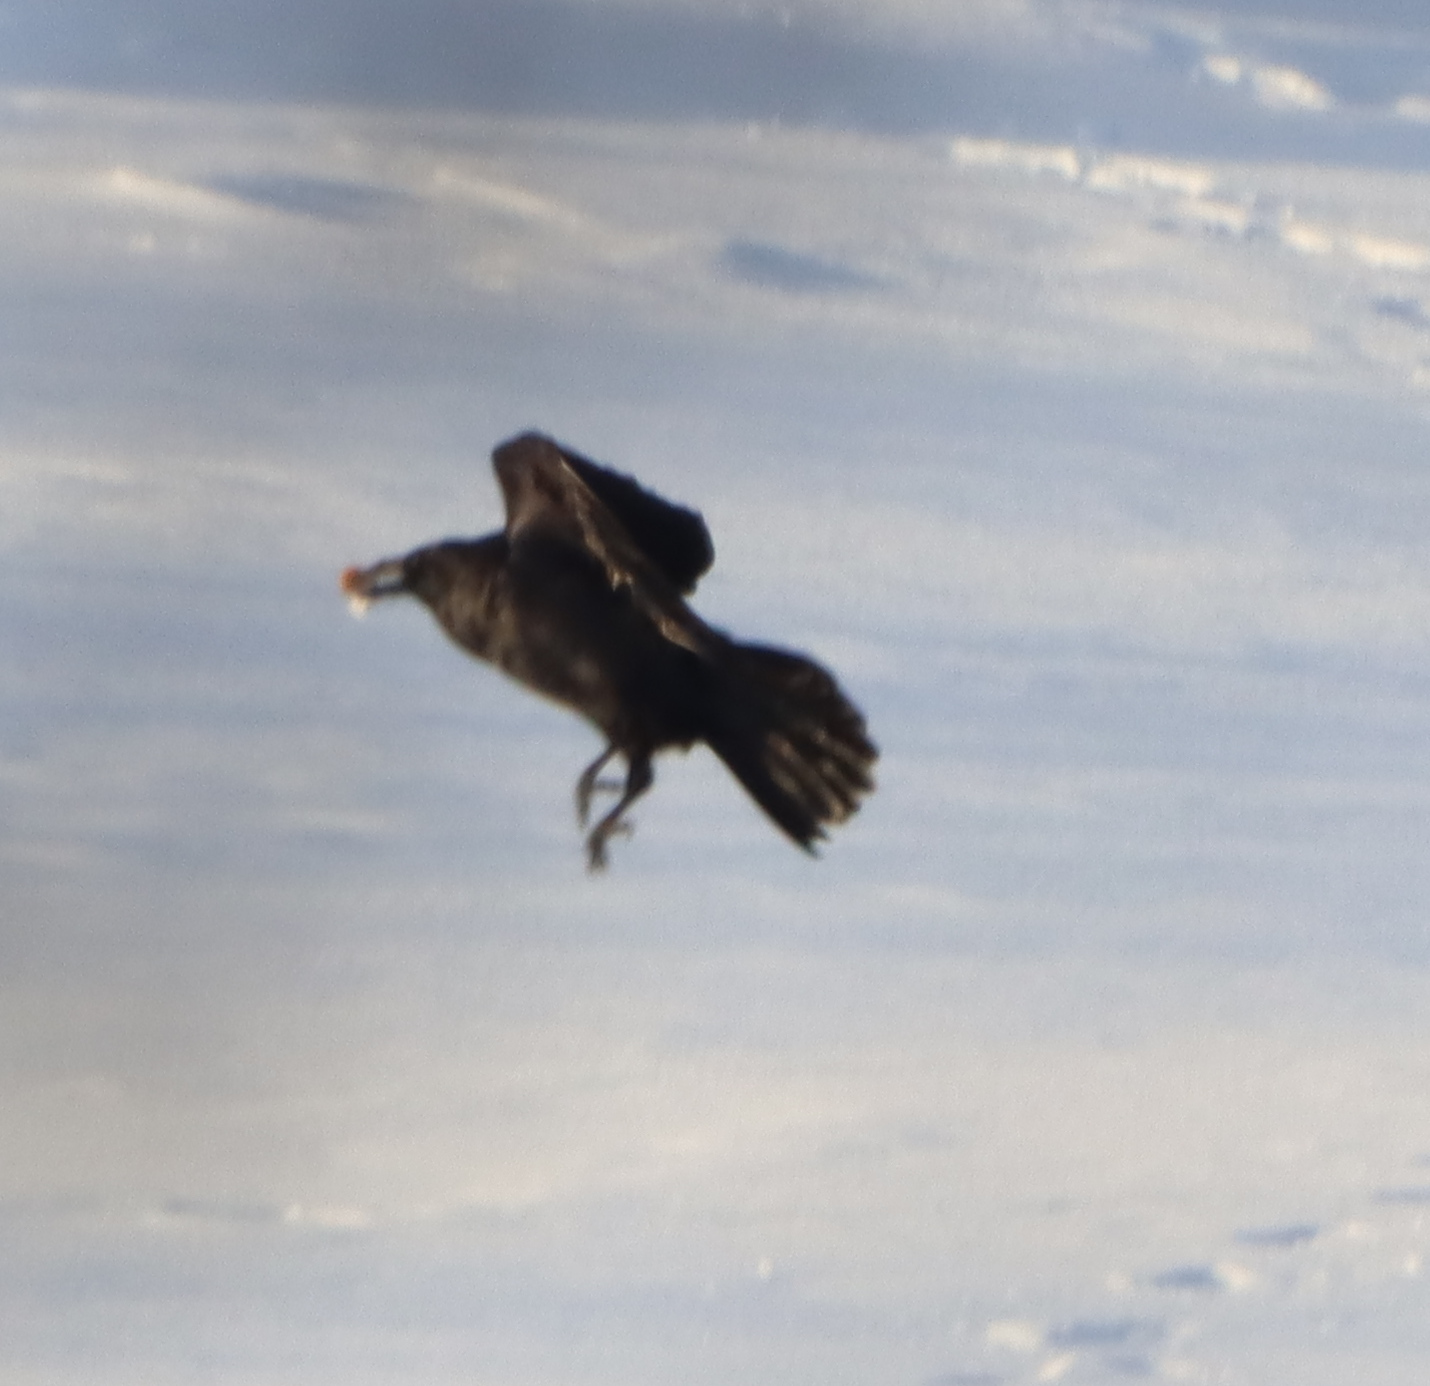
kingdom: Animalia
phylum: Chordata
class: Aves
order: Passeriformes
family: Corvidae
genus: Corvus
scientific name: Corvus corax
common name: Common raven
